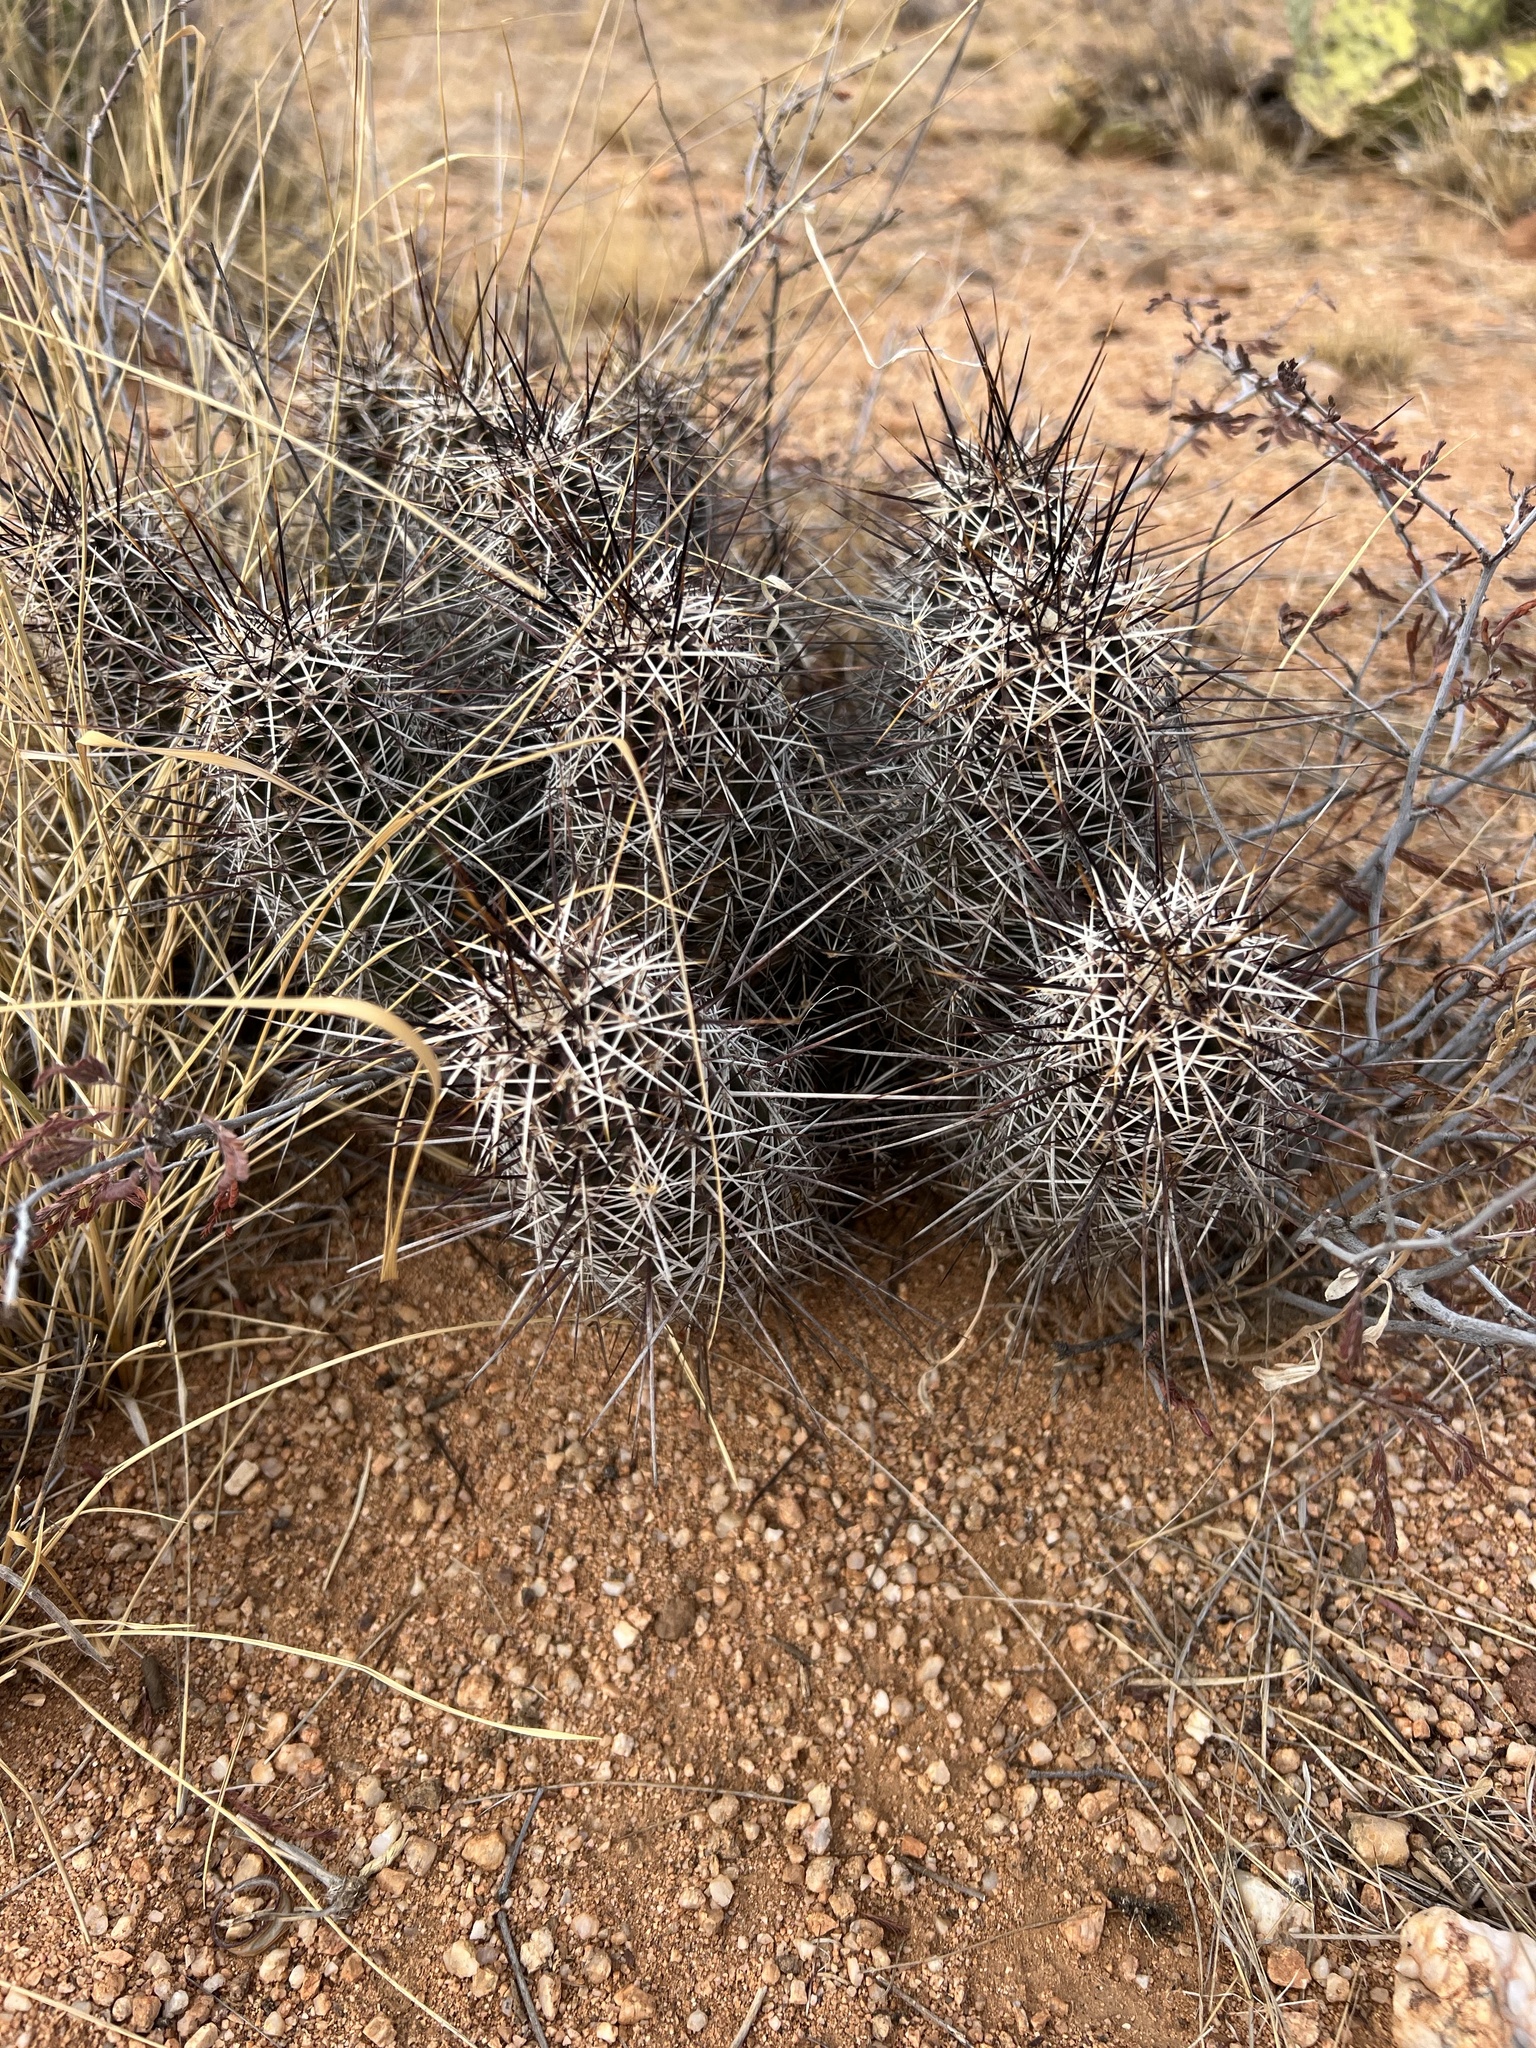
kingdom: Plantae
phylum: Tracheophyta
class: Magnoliopsida
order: Caryophyllales
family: Cactaceae
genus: Echinocereus
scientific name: Echinocereus fasciculatus
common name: Bundle hedgehog
